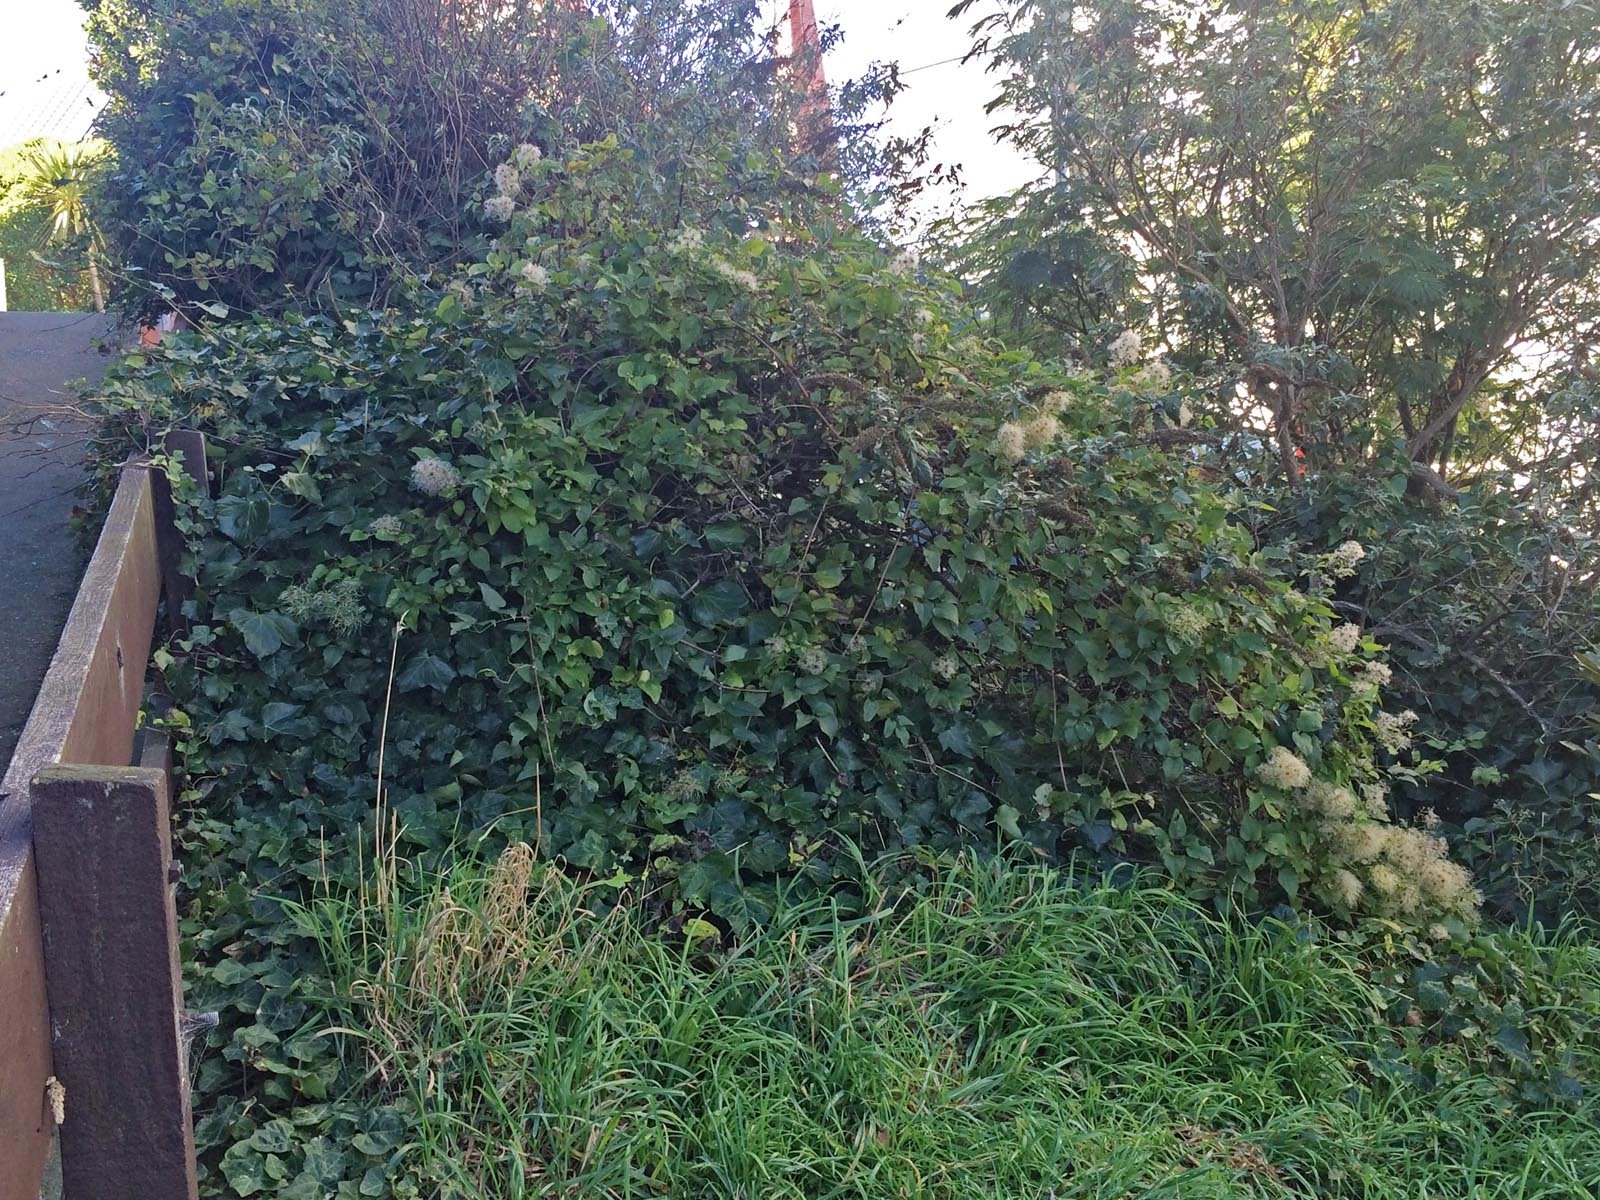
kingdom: Plantae
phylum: Tracheophyta
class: Magnoliopsida
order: Ranunculales
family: Ranunculaceae
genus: Clematis
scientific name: Clematis vitalba
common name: Evergreen clematis
